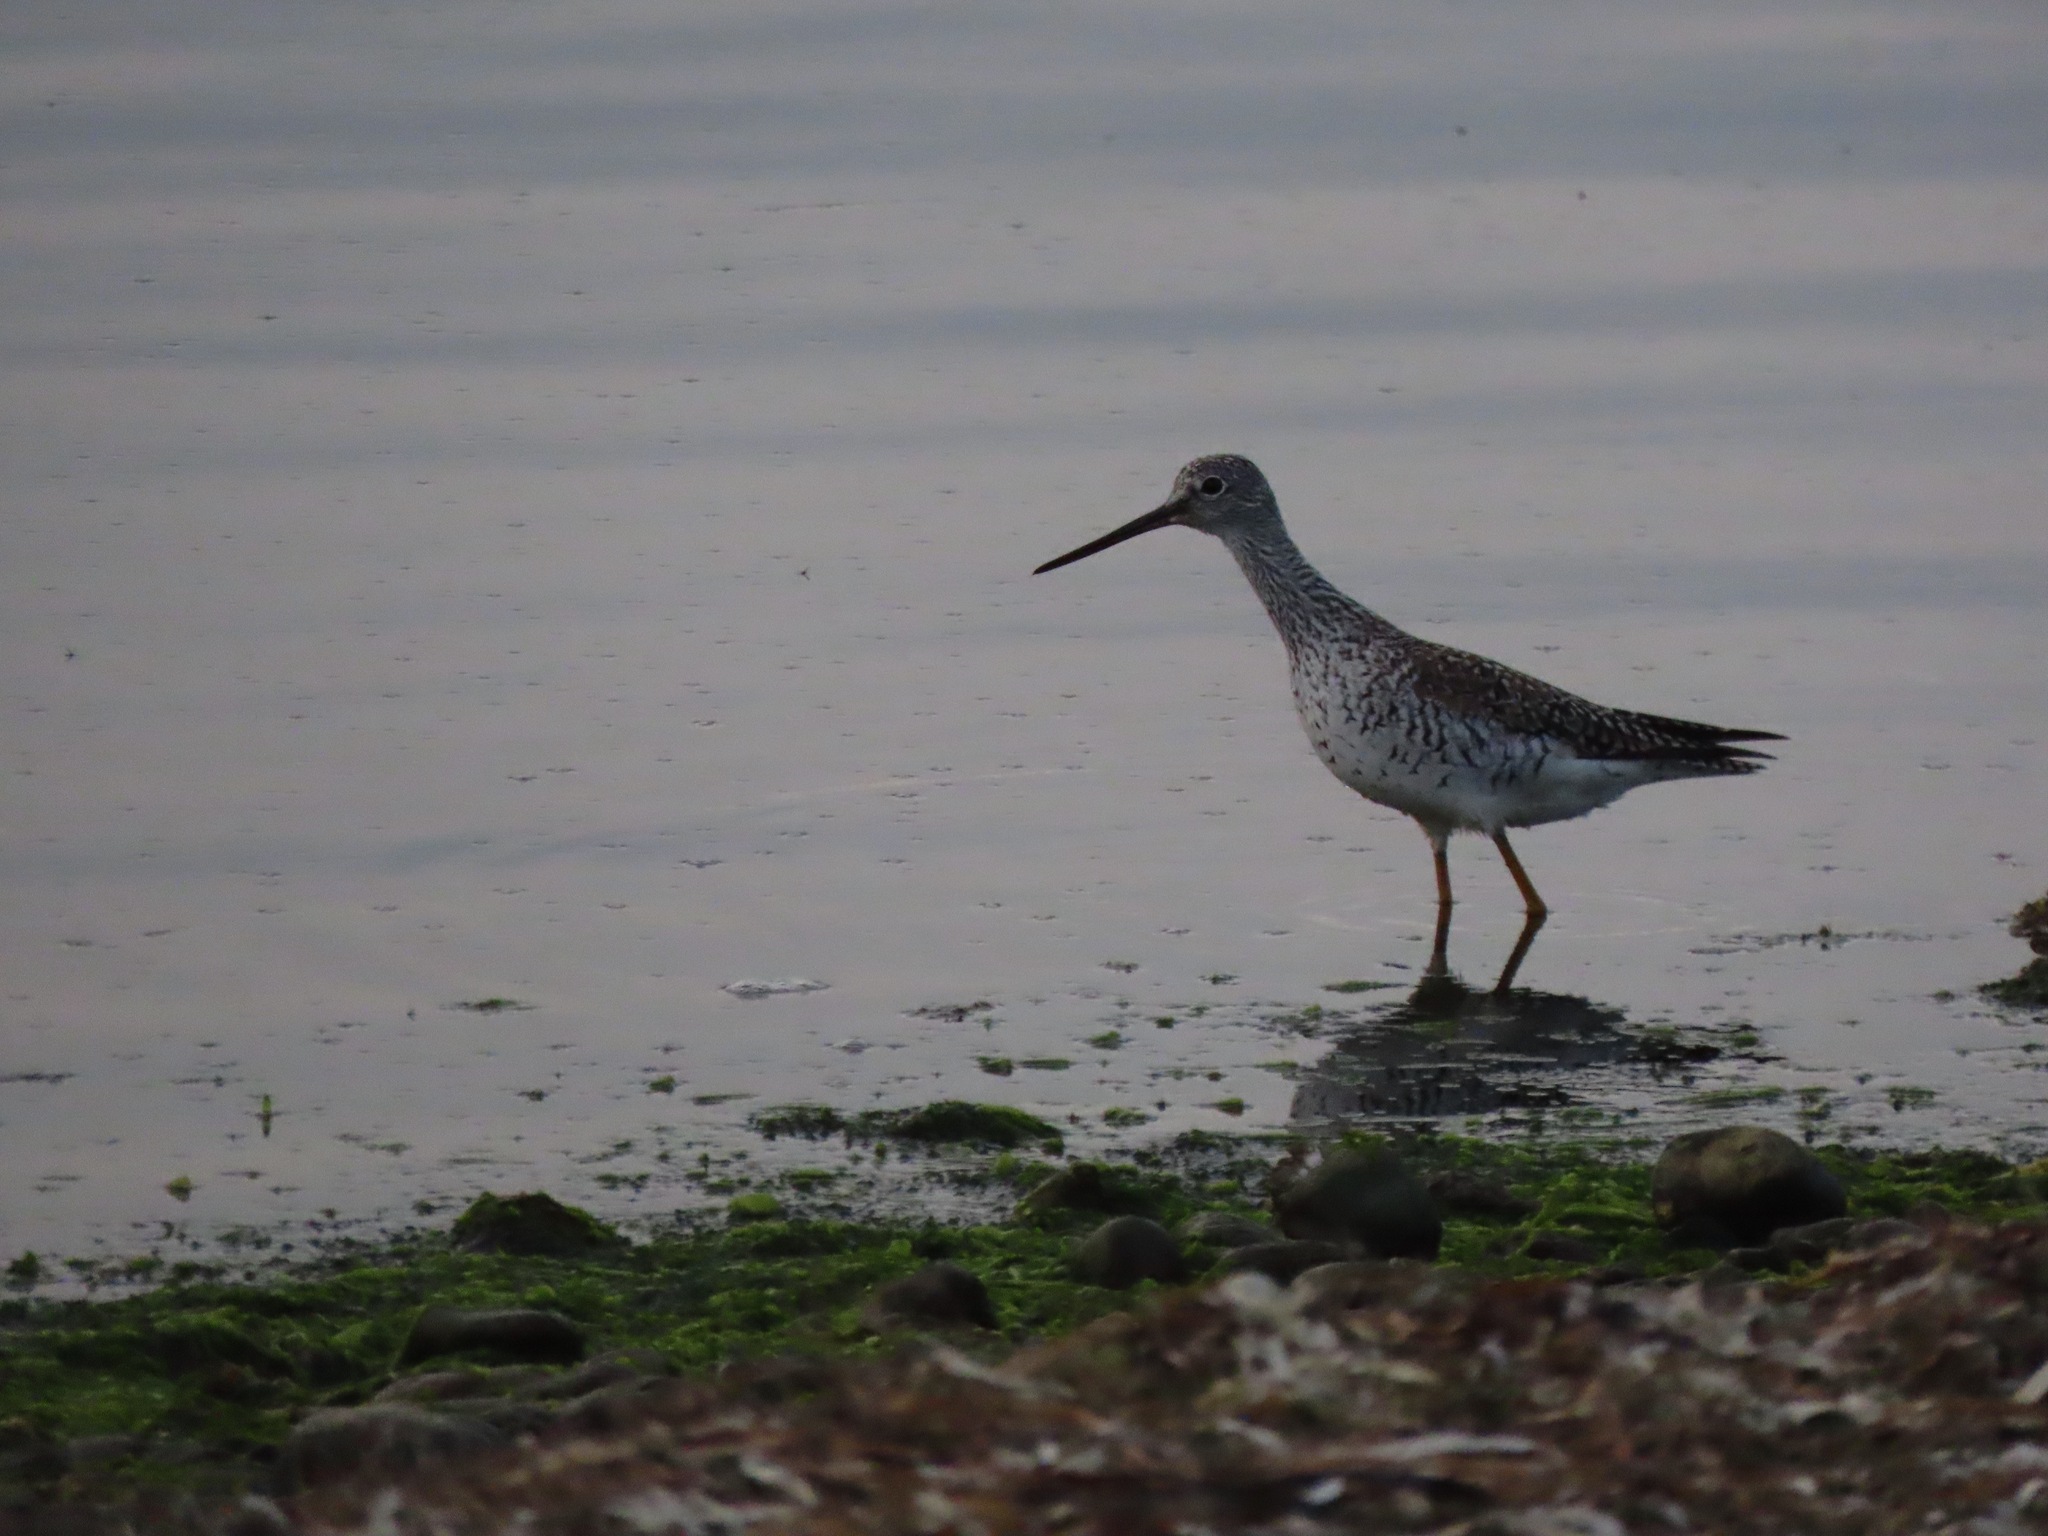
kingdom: Animalia
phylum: Chordata
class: Aves
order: Charadriiformes
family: Scolopacidae
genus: Tringa
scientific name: Tringa melanoleuca
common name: Greater yellowlegs
